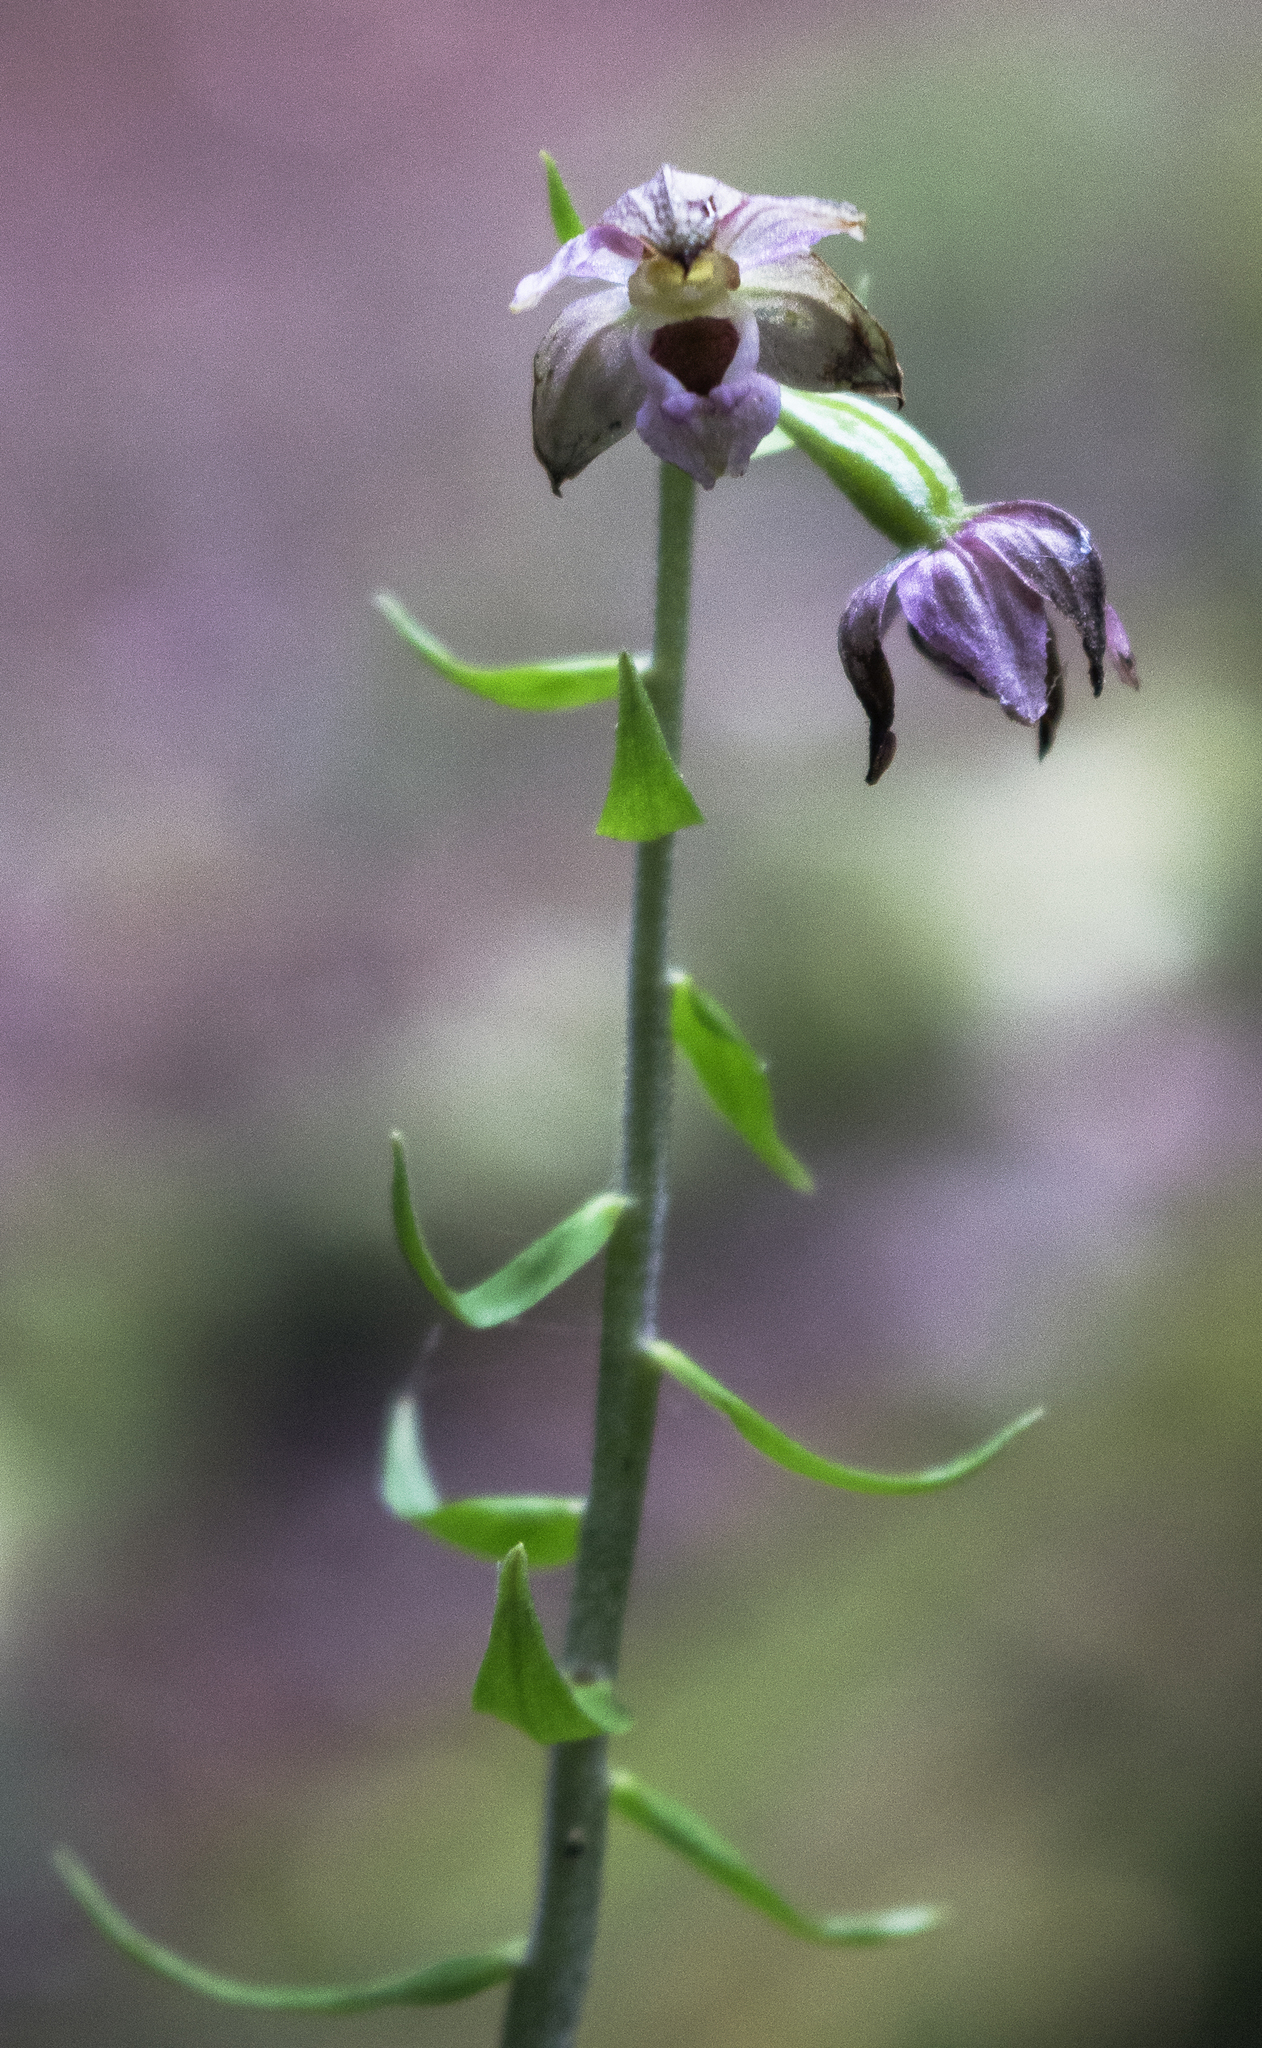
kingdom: Plantae
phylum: Tracheophyta
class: Liliopsida
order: Asparagales
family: Orchidaceae
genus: Epipactis
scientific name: Epipactis helleborine
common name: Broad-leaved helleborine
